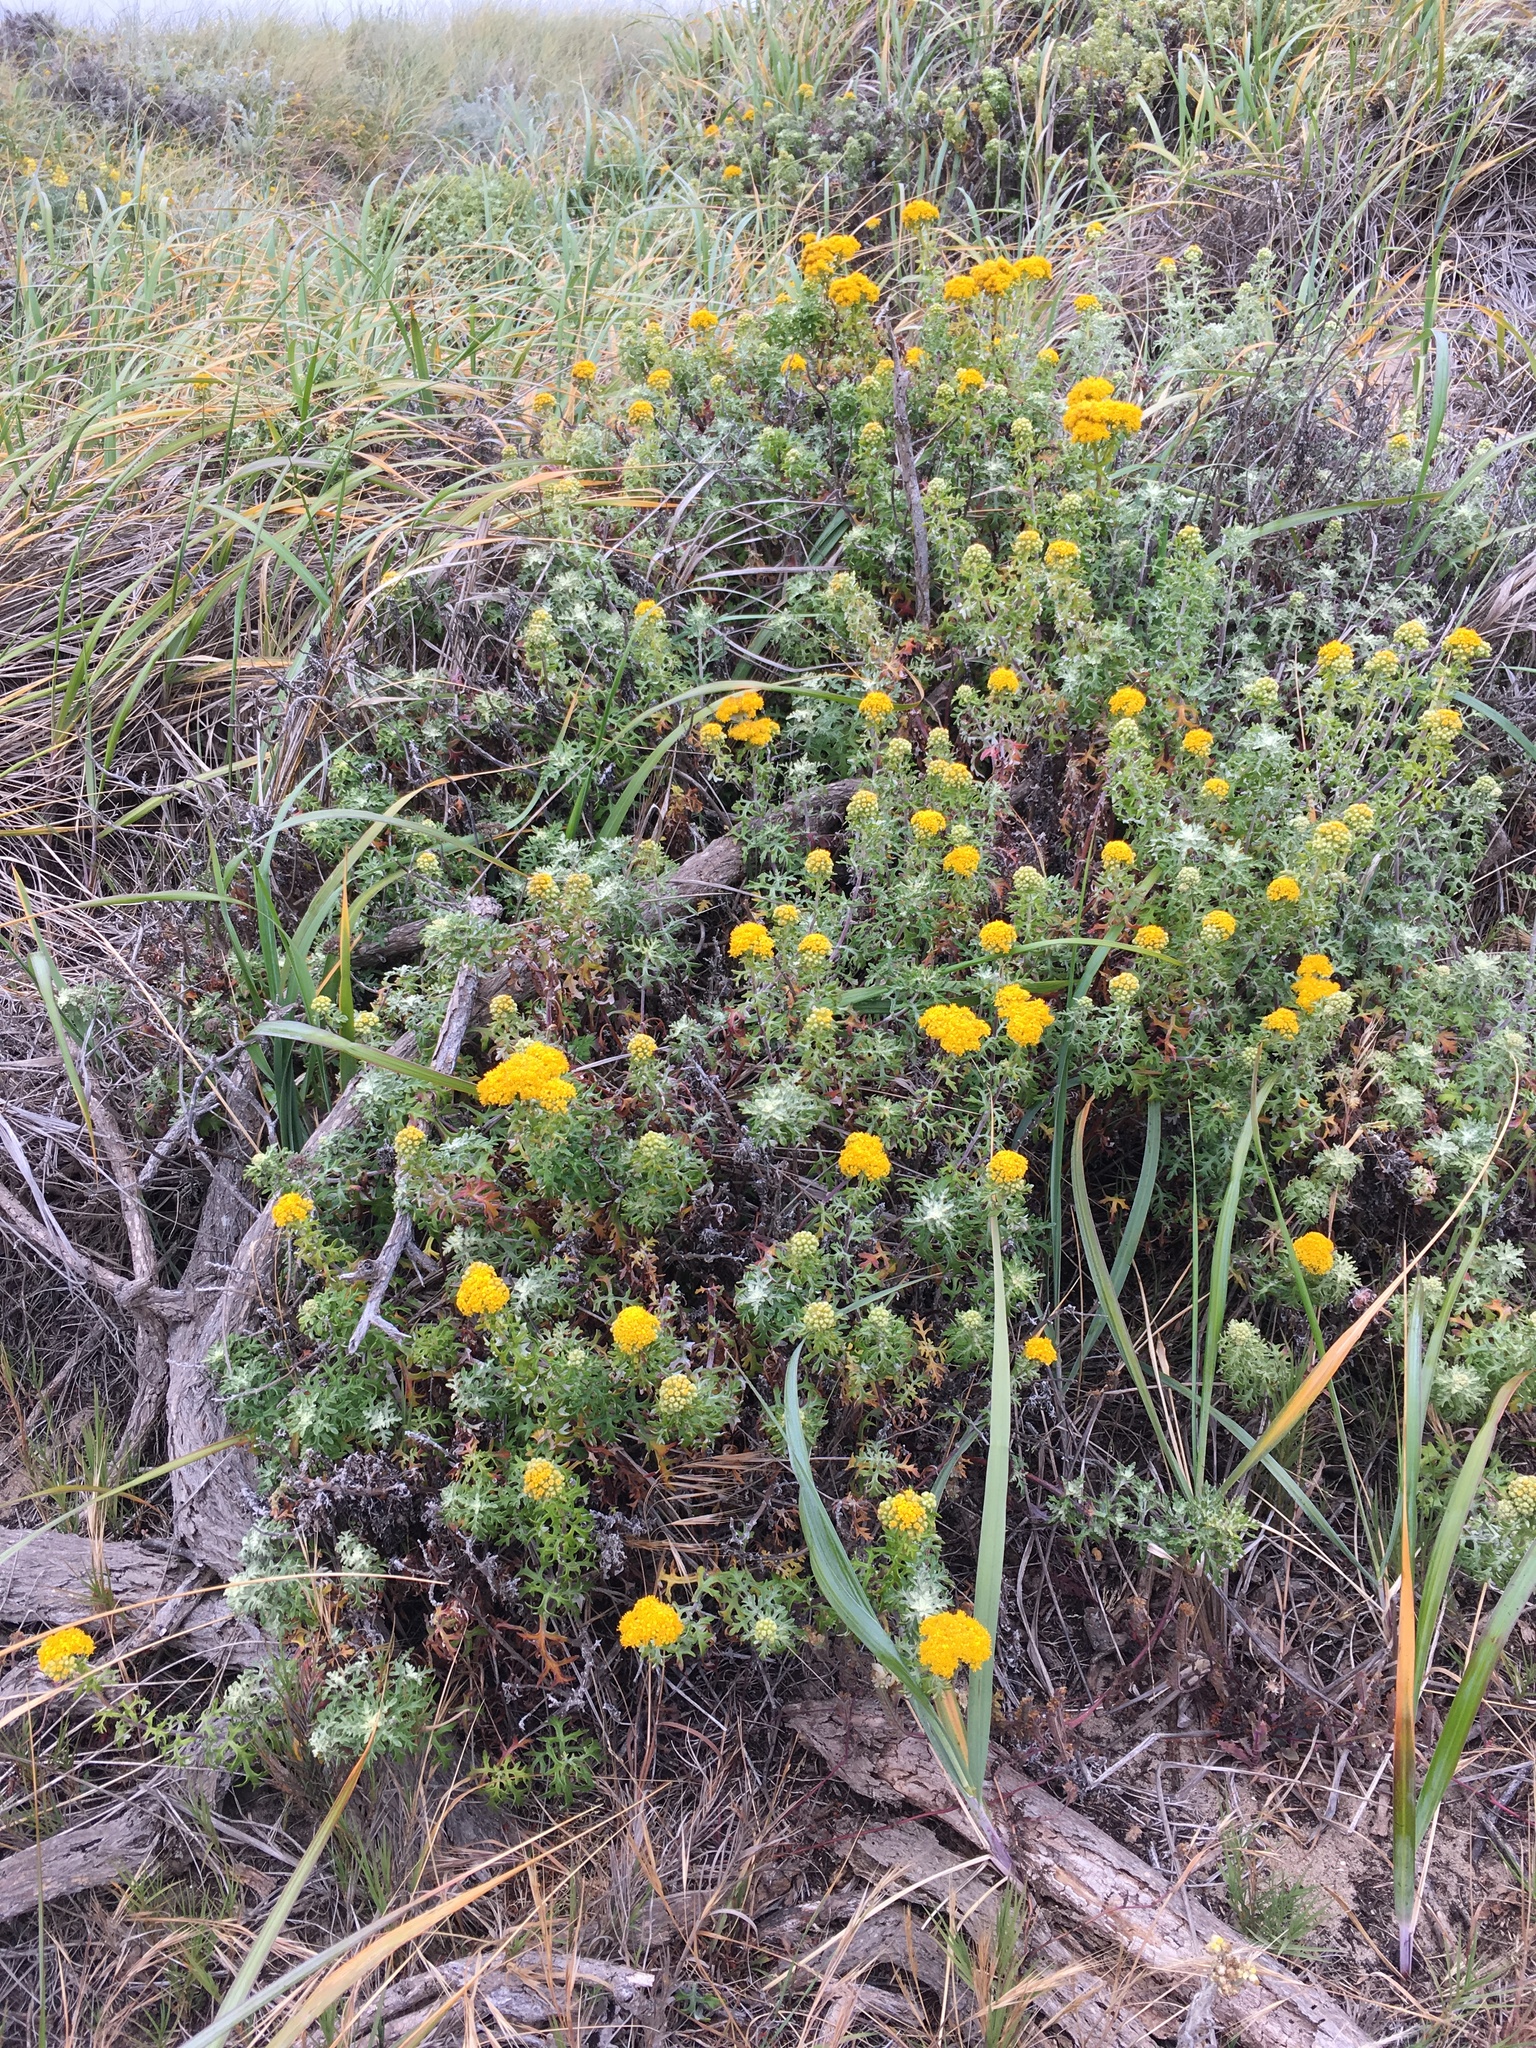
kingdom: Plantae
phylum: Tracheophyta
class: Magnoliopsida
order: Asterales
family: Asteraceae
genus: Eriophyllum
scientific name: Eriophyllum staechadifolium
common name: Lizardtail
